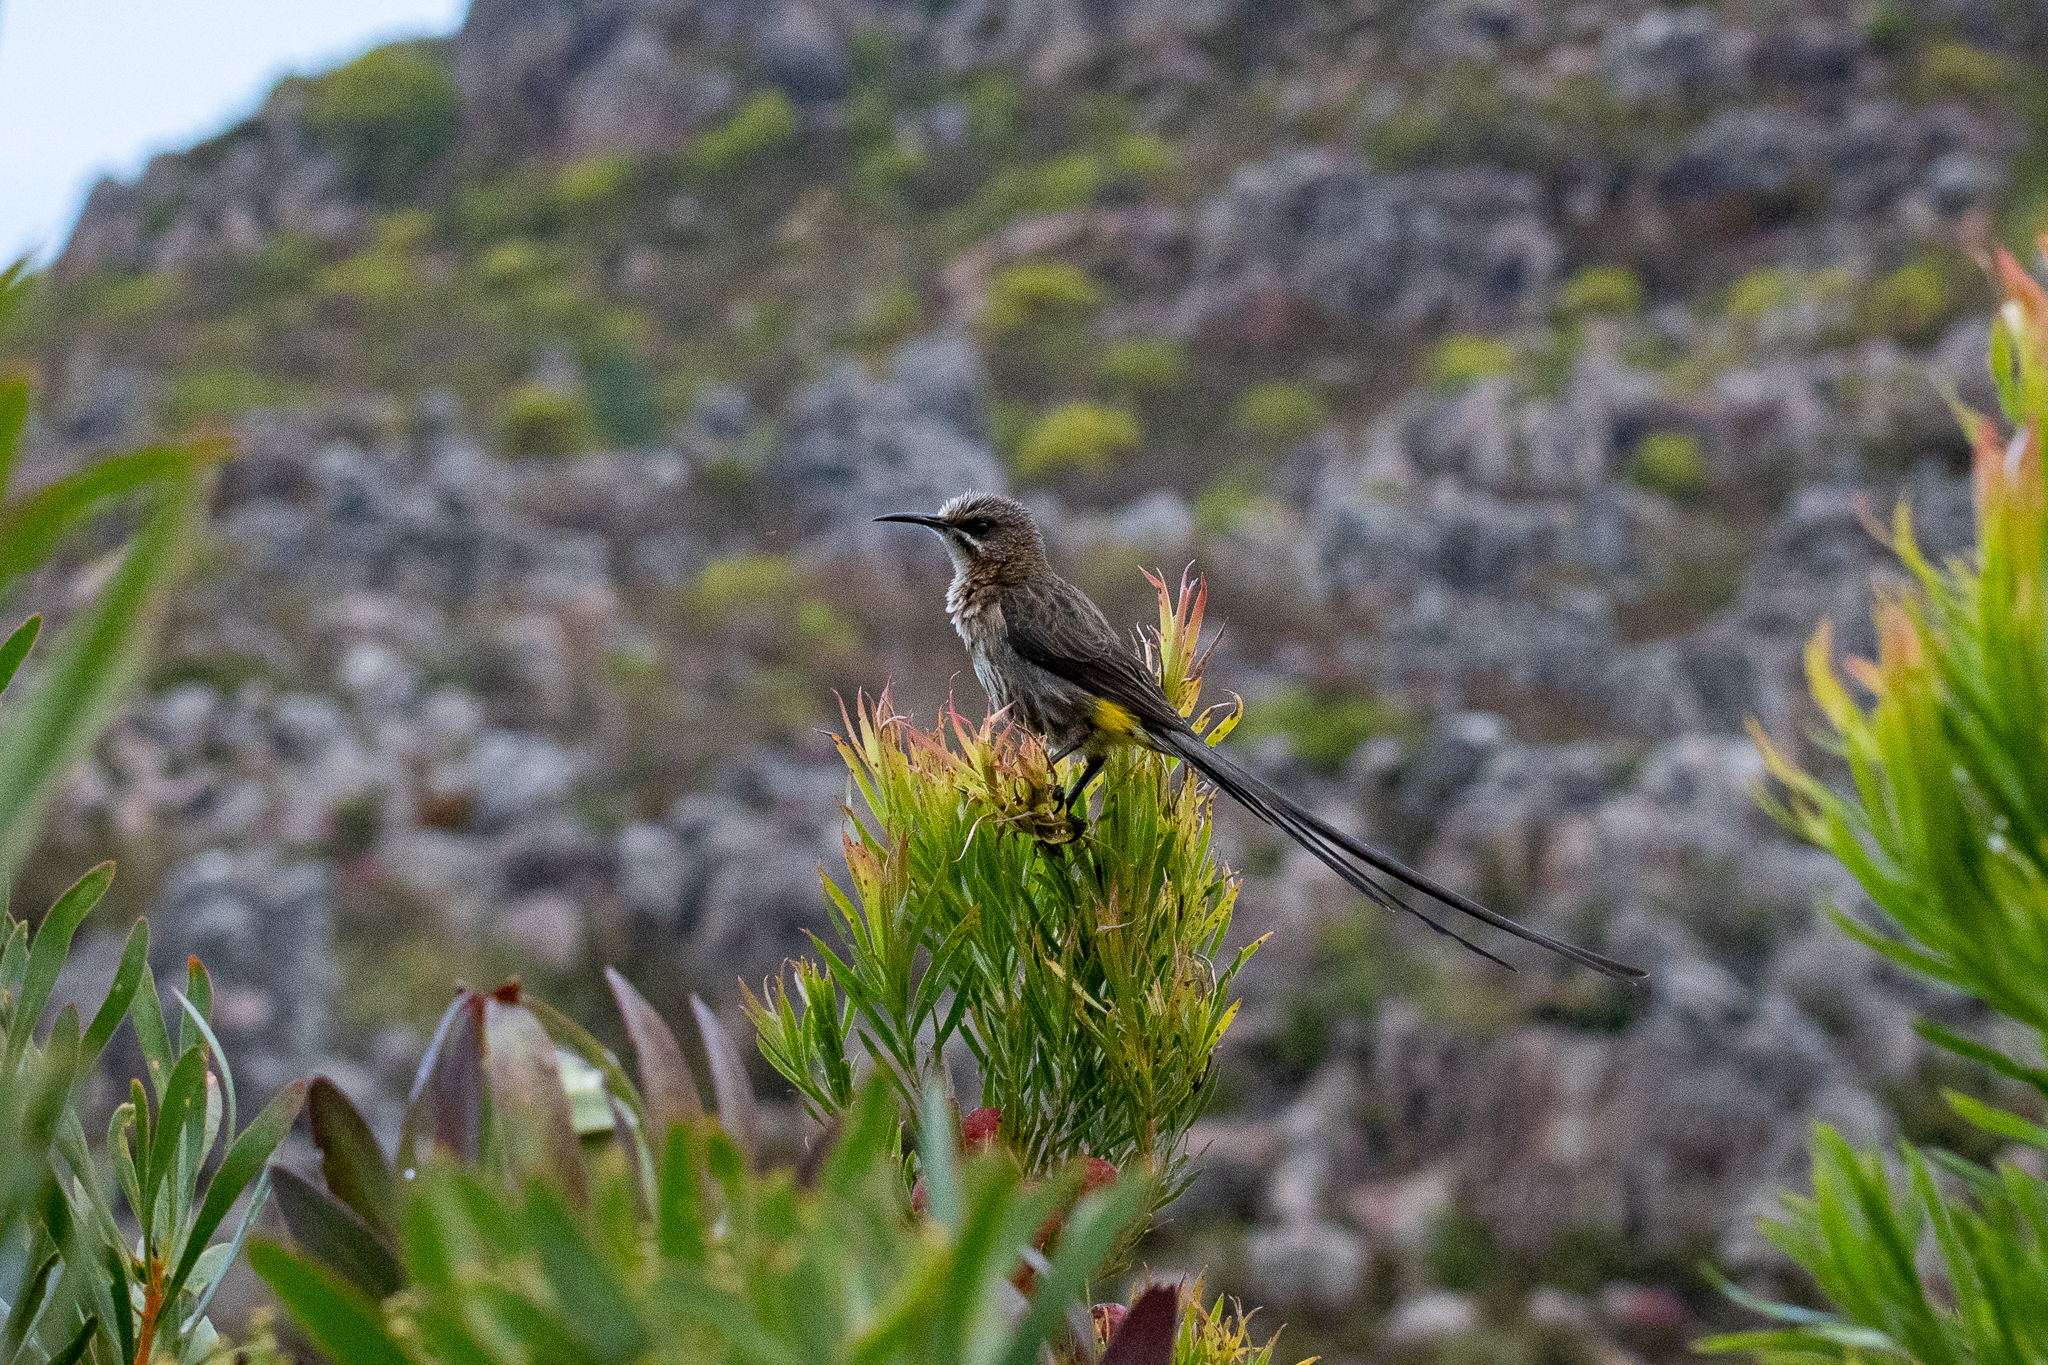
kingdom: Animalia
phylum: Chordata
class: Aves
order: Passeriformes
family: Promeropidae
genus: Promerops
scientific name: Promerops cafer
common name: Cape sugarbird
